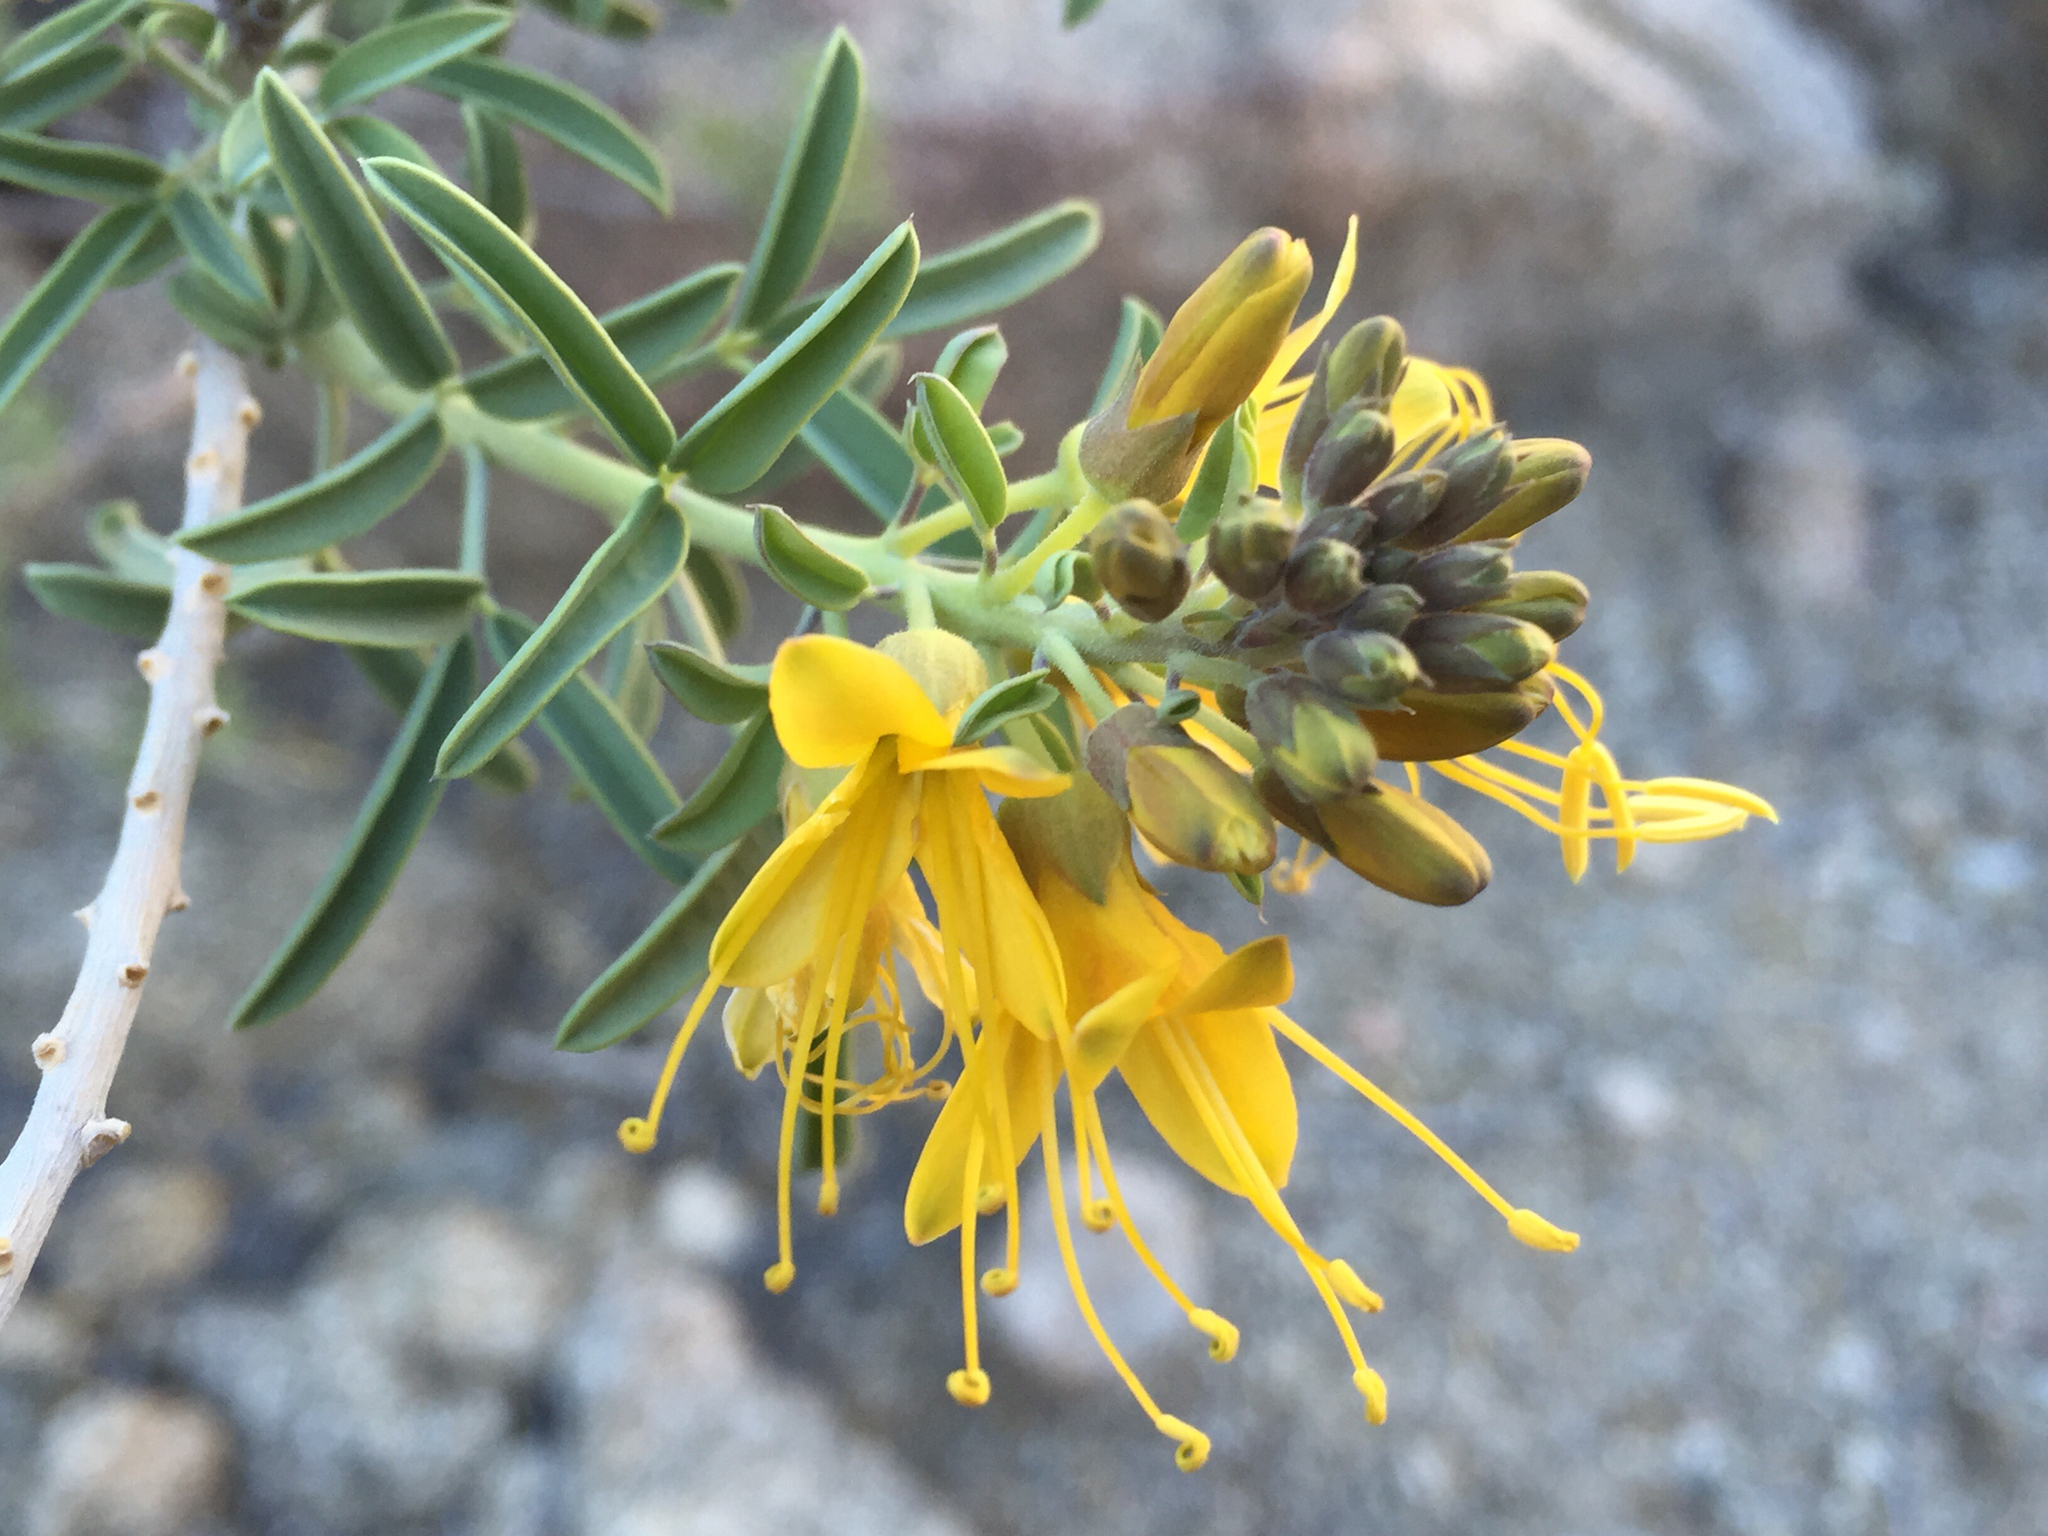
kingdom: Plantae
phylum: Tracheophyta
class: Magnoliopsida
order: Brassicales
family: Cleomaceae
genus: Cleomella
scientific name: Cleomella arborea
